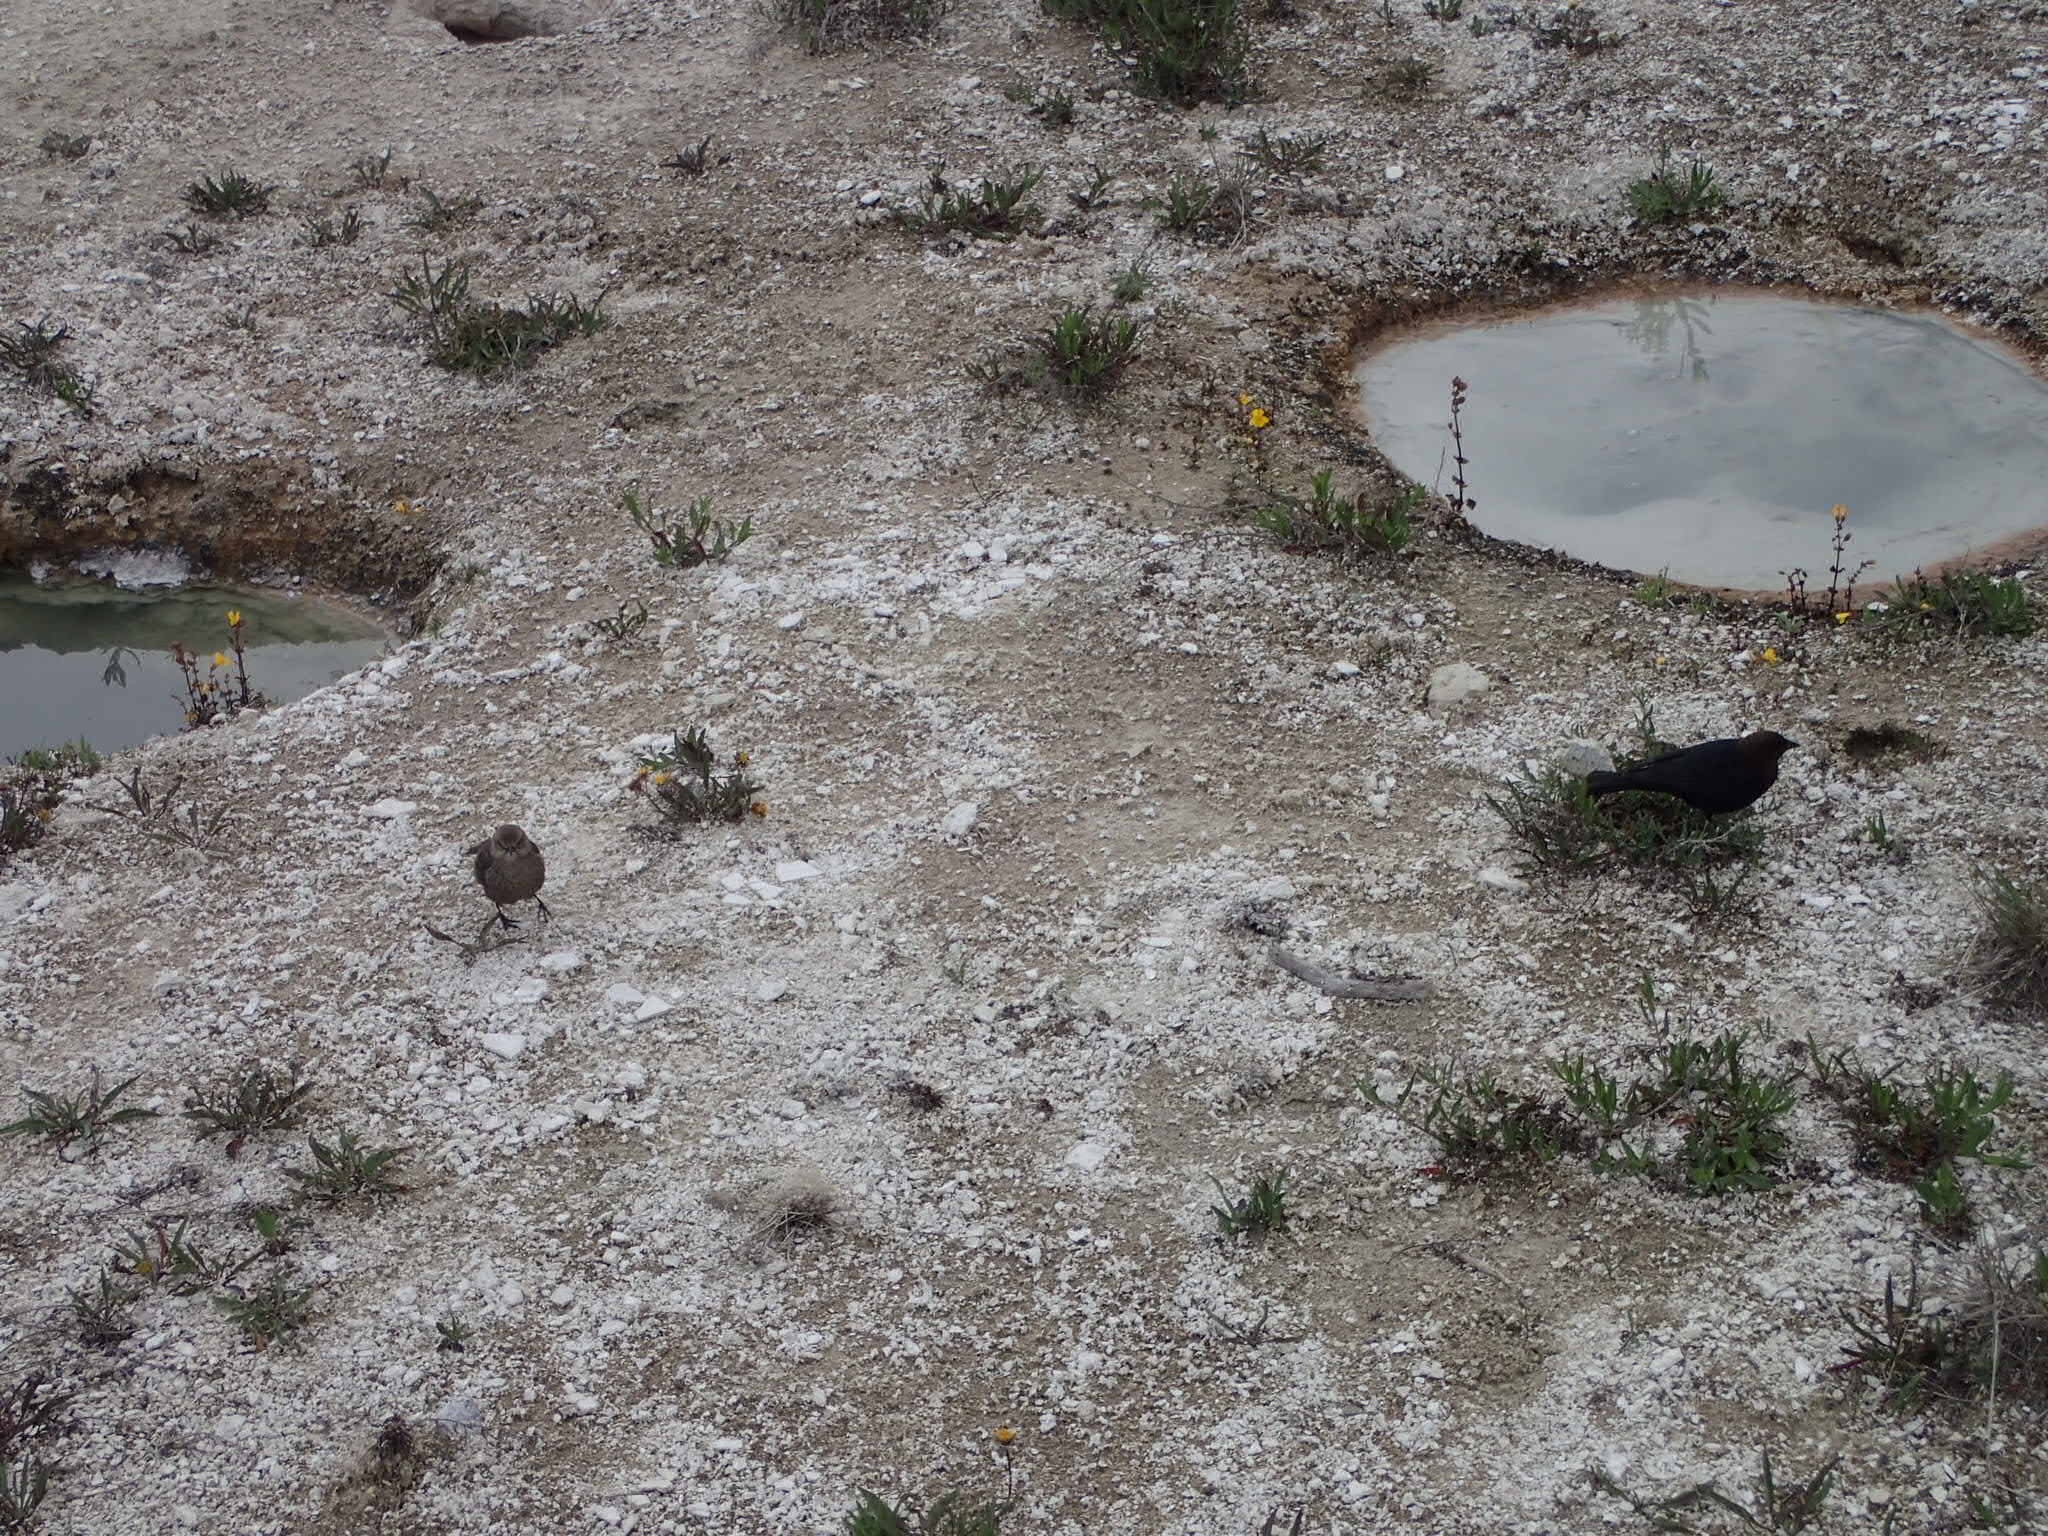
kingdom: Animalia
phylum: Chordata
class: Aves
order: Passeriformes
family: Icteridae
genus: Molothrus
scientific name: Molothrus ater
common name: Brown-headed cowbird
